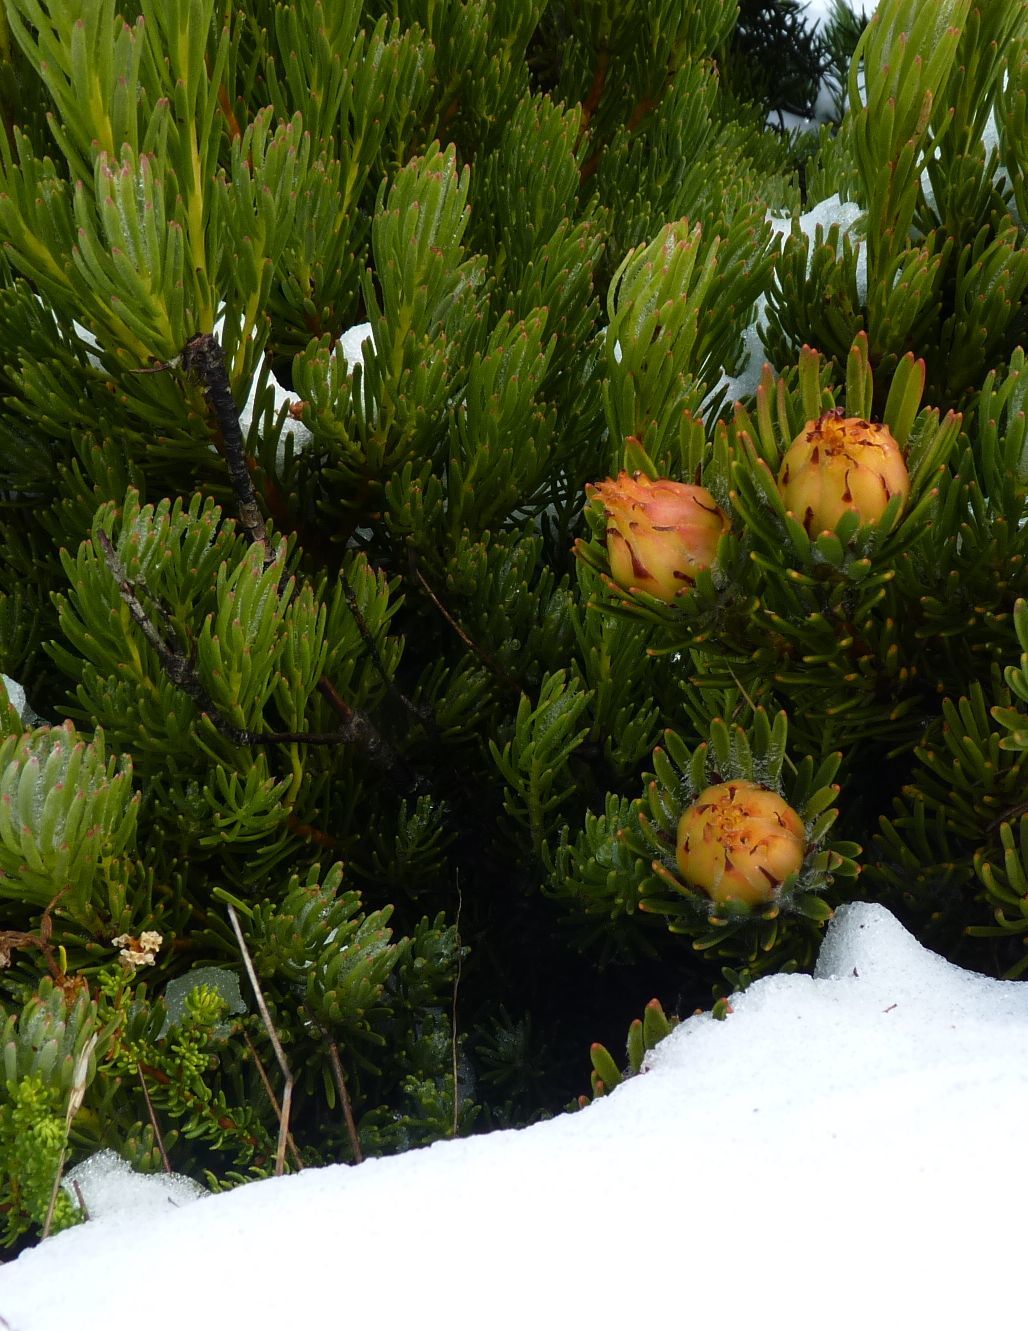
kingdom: Plantae
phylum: Tracheophyta
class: Magnoliopsida
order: Proteales
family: Proteaceae
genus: Leucadendron
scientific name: Leucadendron dregei
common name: Summit conebush
